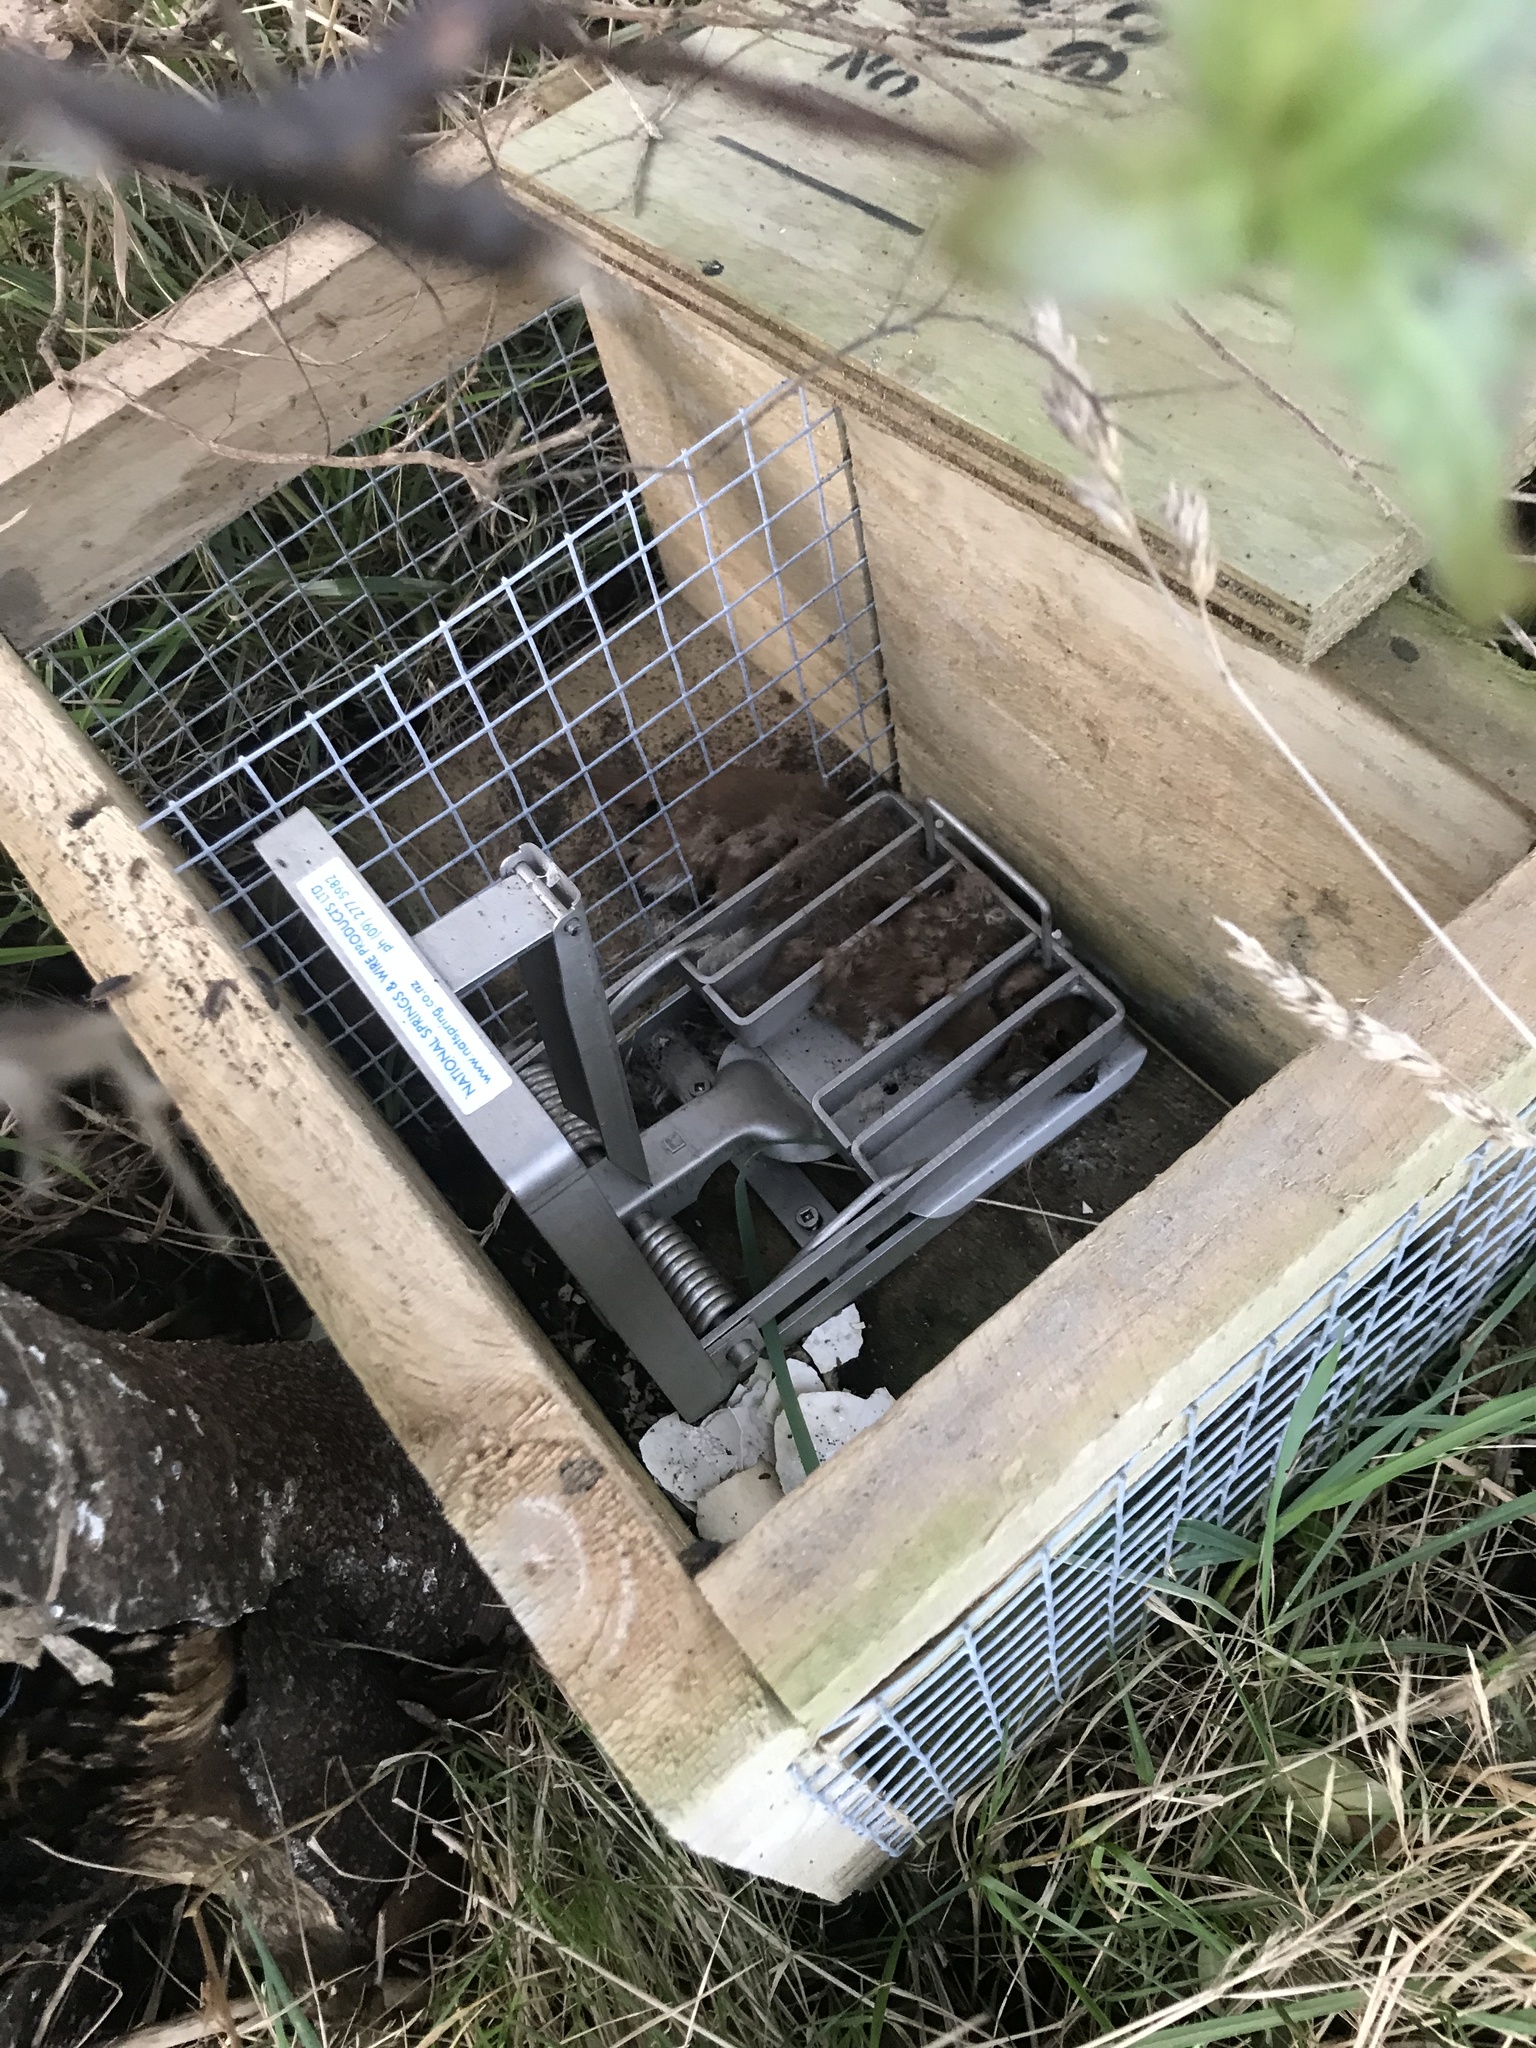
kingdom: Animalia
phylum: Chordata
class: Mammalia
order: Carnivora
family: Mustelidae
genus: Mustela
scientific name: Mustela nivalis
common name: Least weasel
